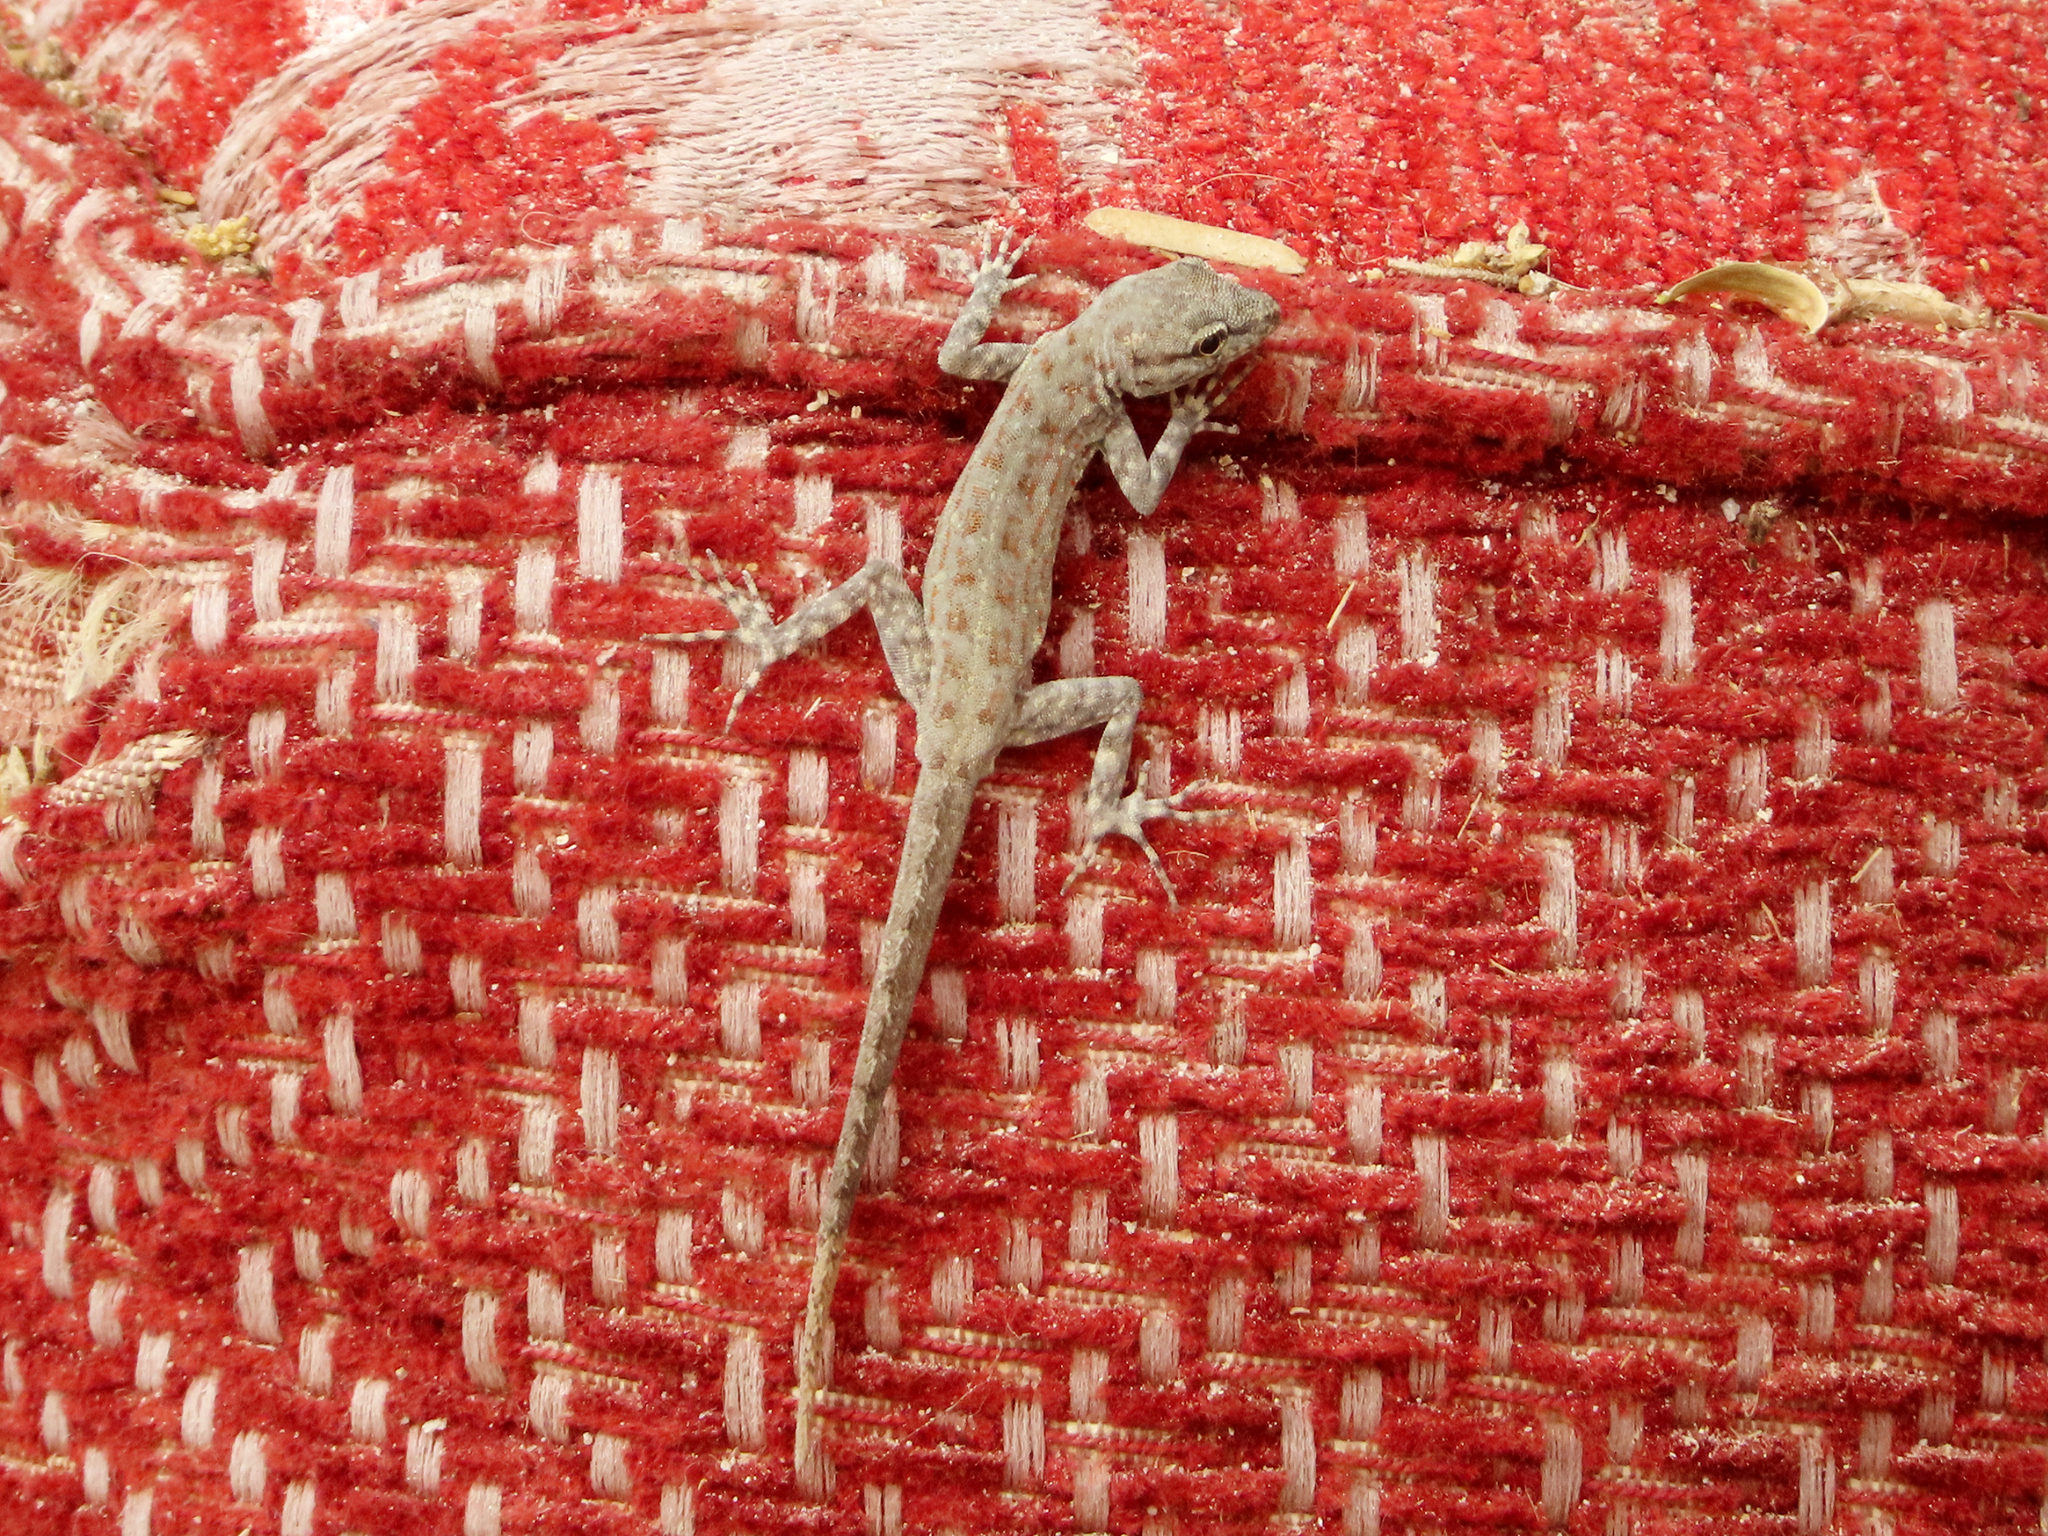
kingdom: Animalia
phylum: Chordata
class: Squamata
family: Sphaerodactylidae
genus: Pristurus
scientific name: Pristurus rupestris
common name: Blanford’s semaphore gecko
